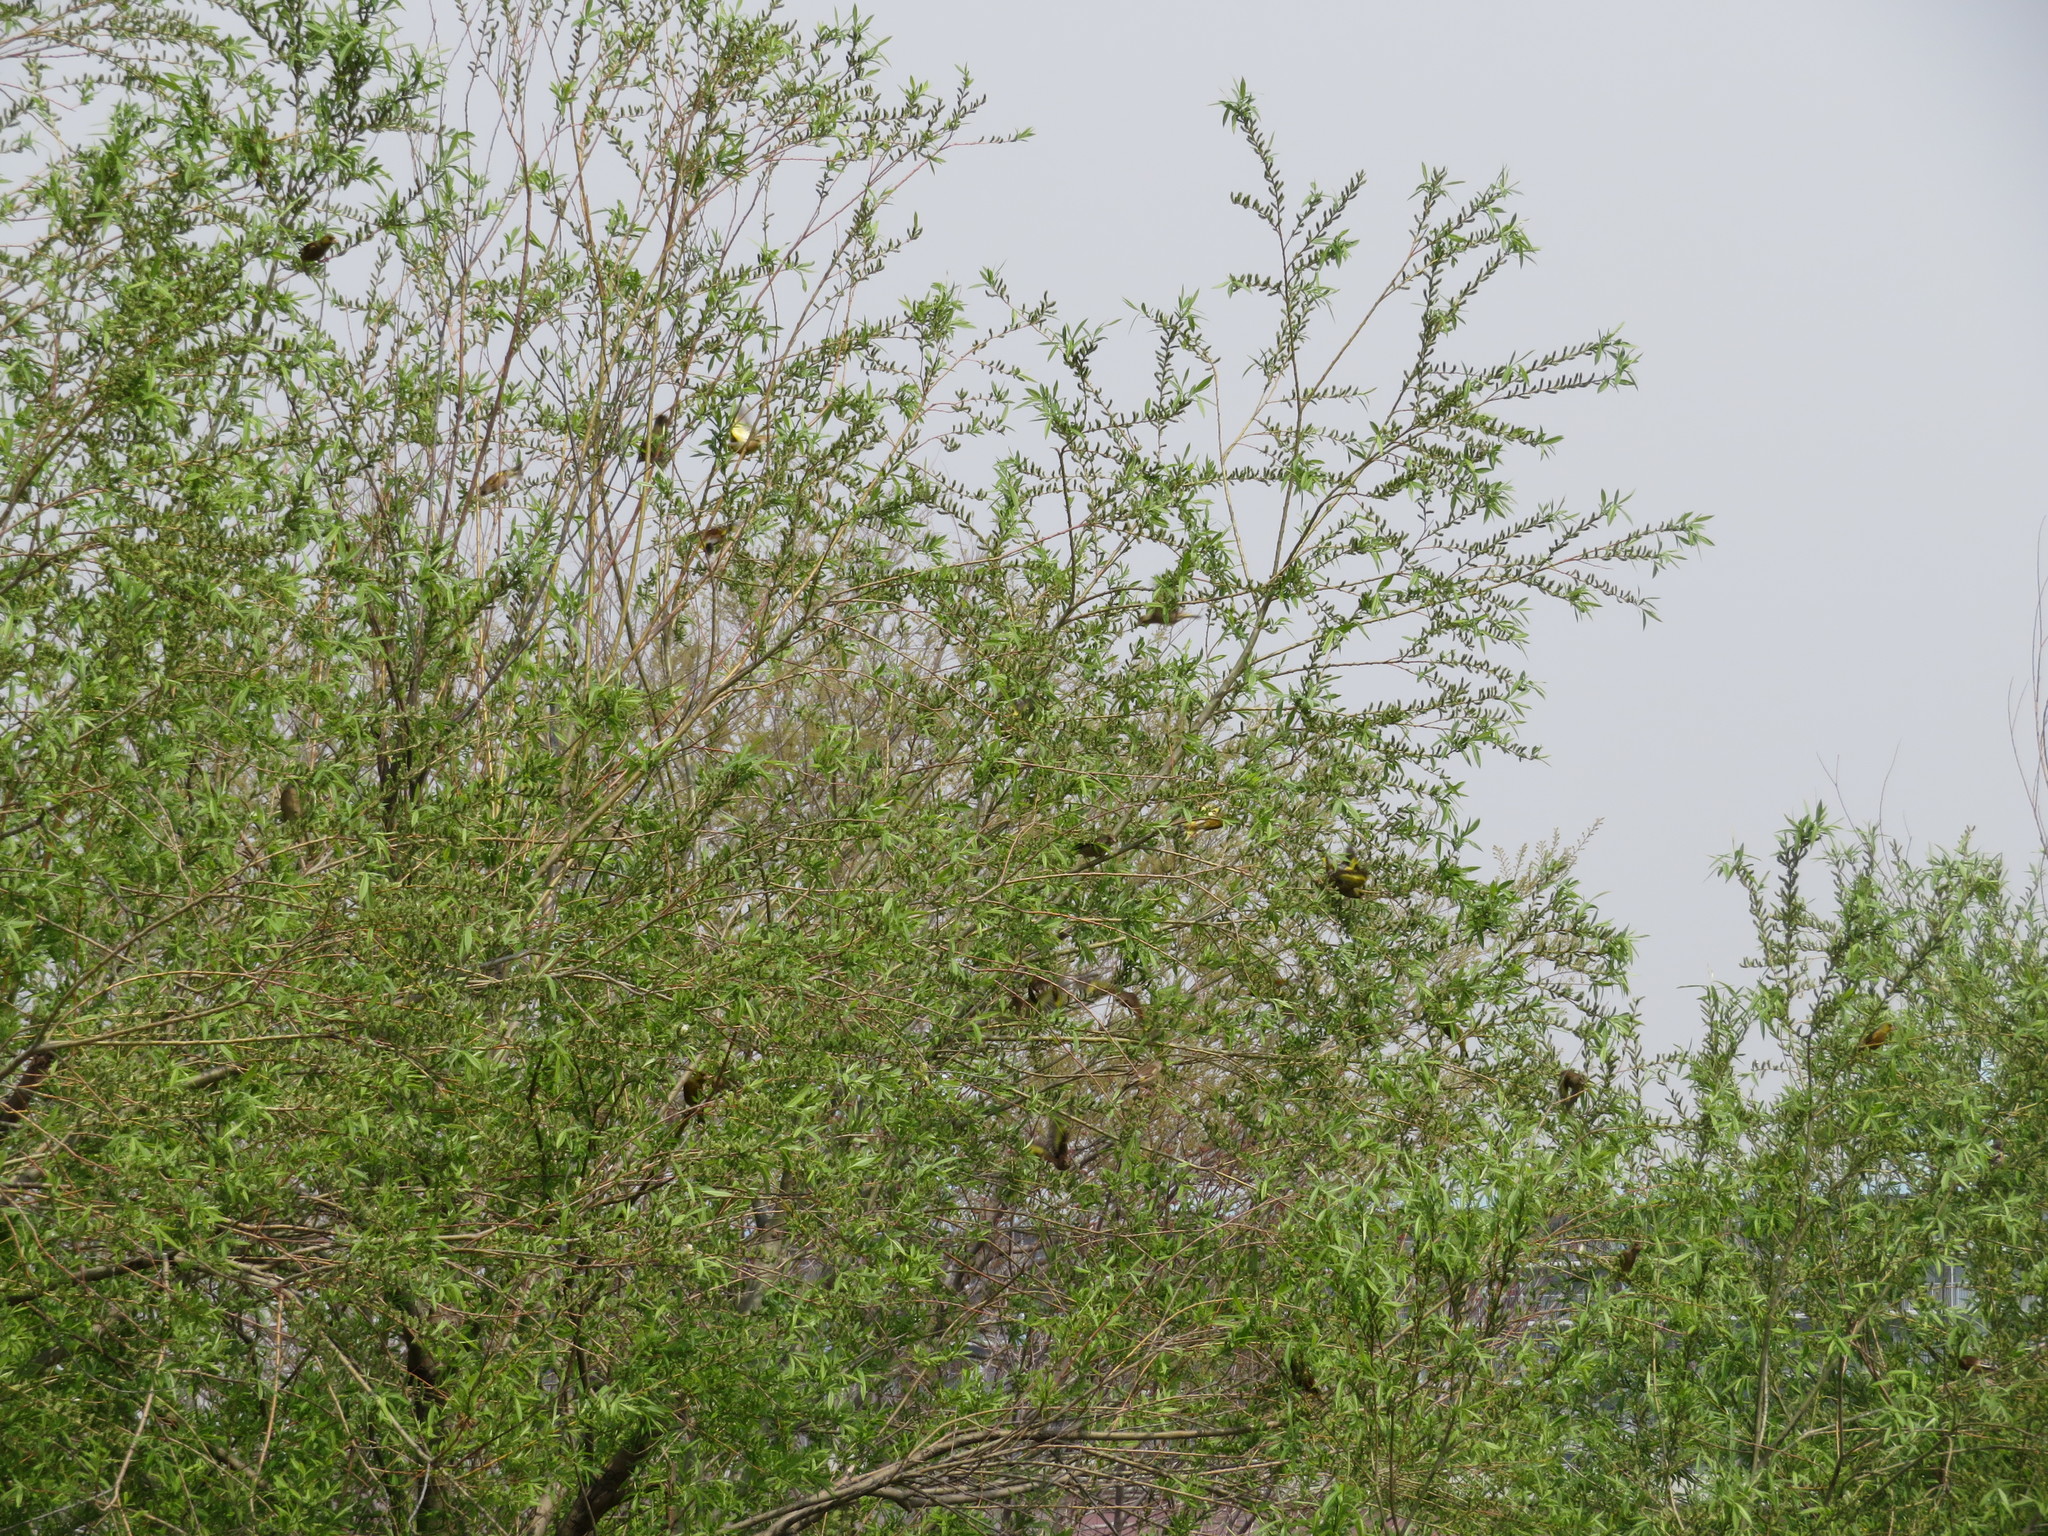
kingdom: Plantae
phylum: Tracheophyta
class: Liliopsida
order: Poales
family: Poaceae
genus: Chloris
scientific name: Chloris sinica
